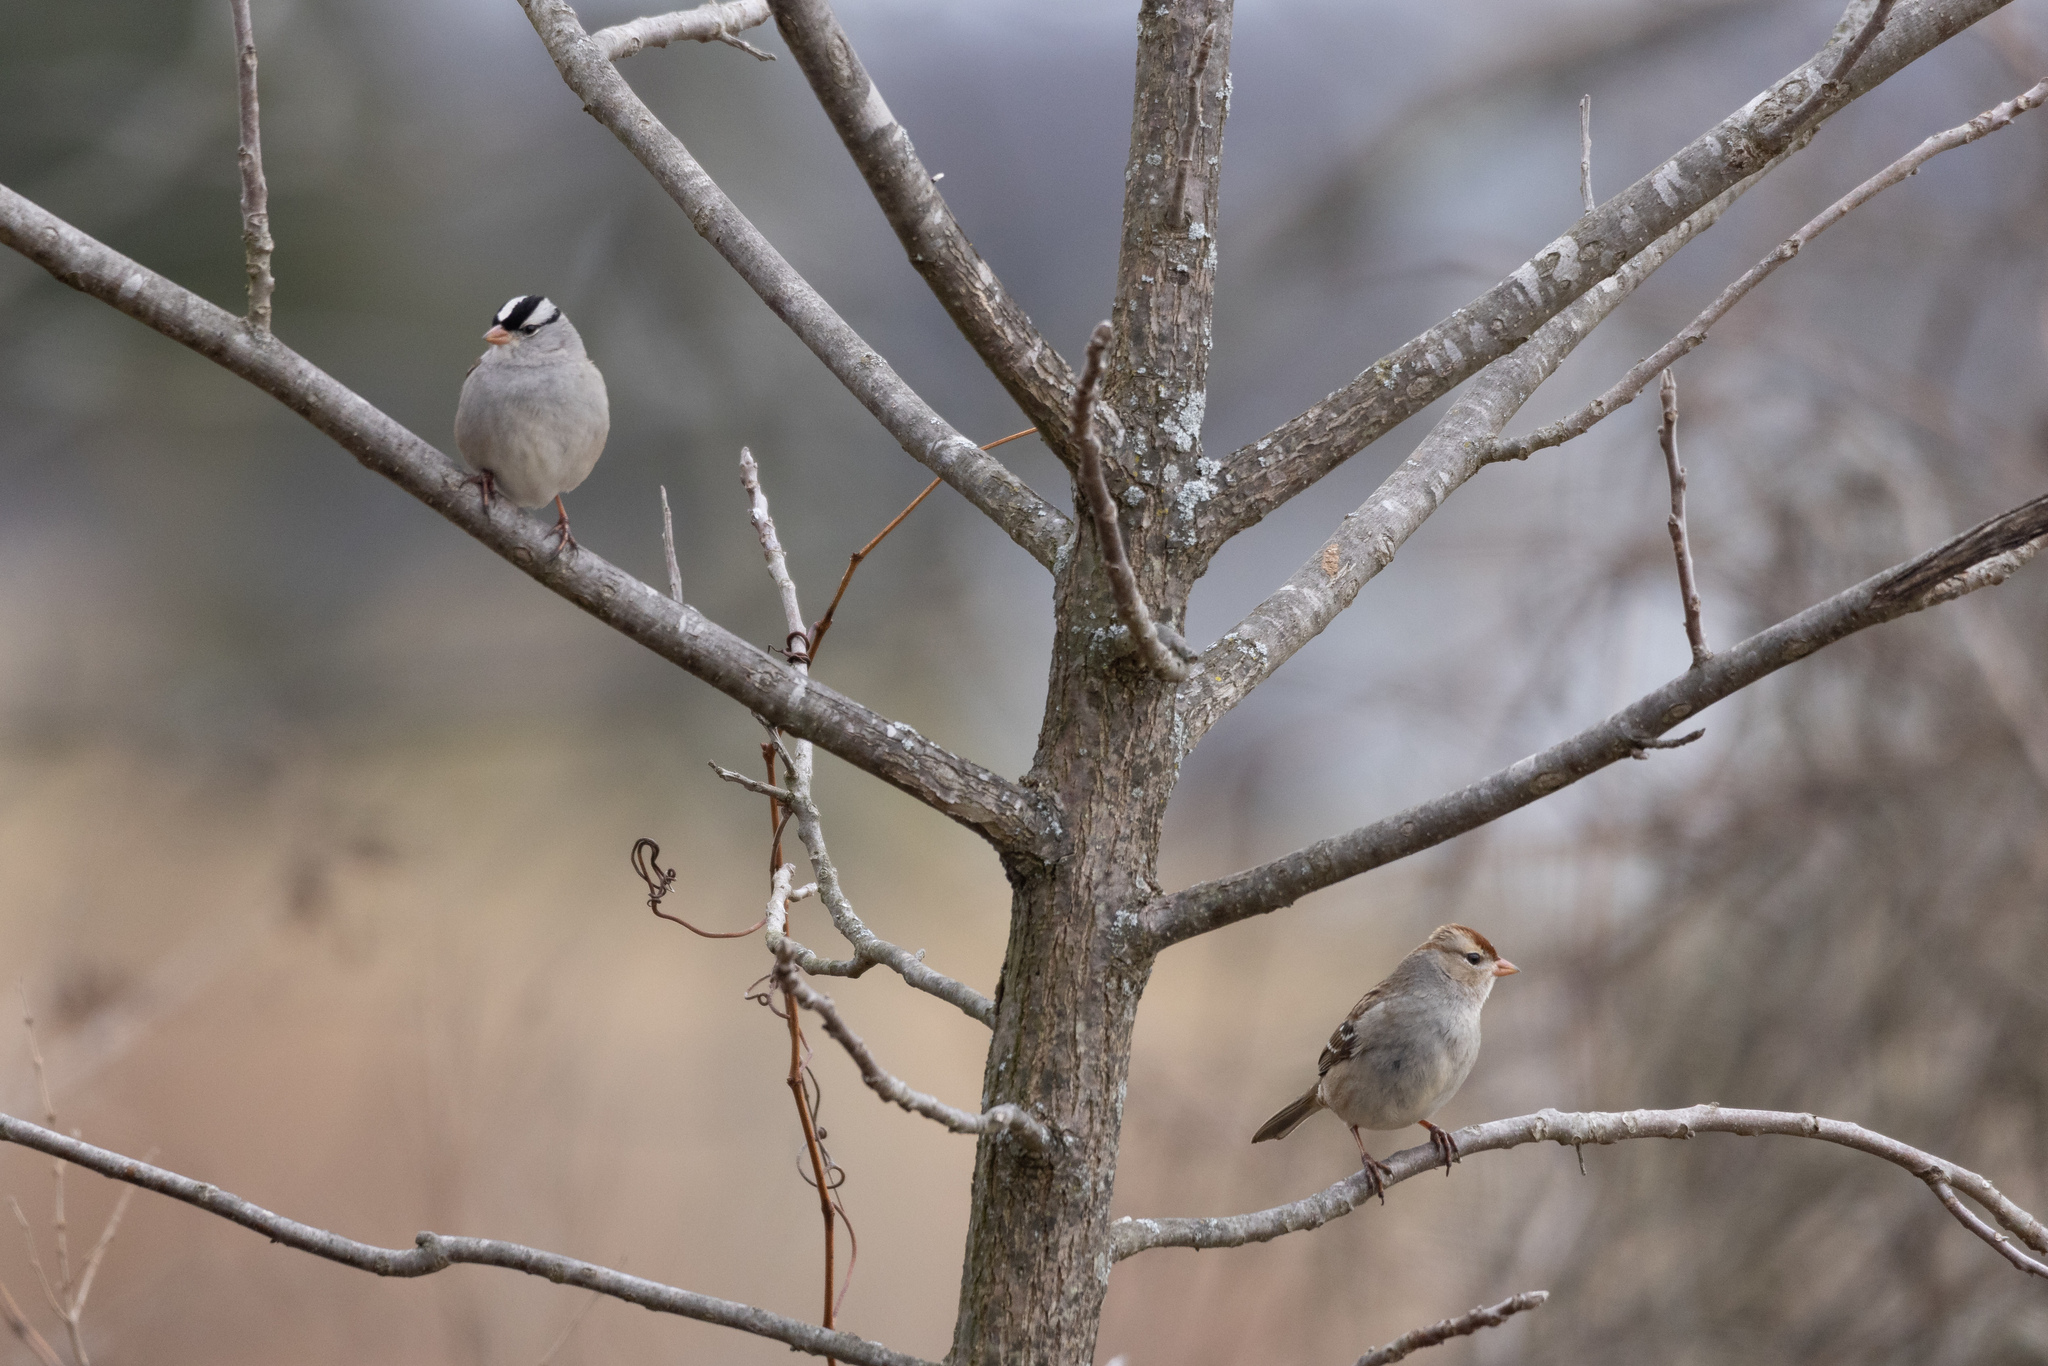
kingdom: Animalia
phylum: Chordata
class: Aves
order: Passeriformes
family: Passerellidae
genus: Zonotrichia
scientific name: Zonotrichia leucophrys
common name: White-crowned sparrow
